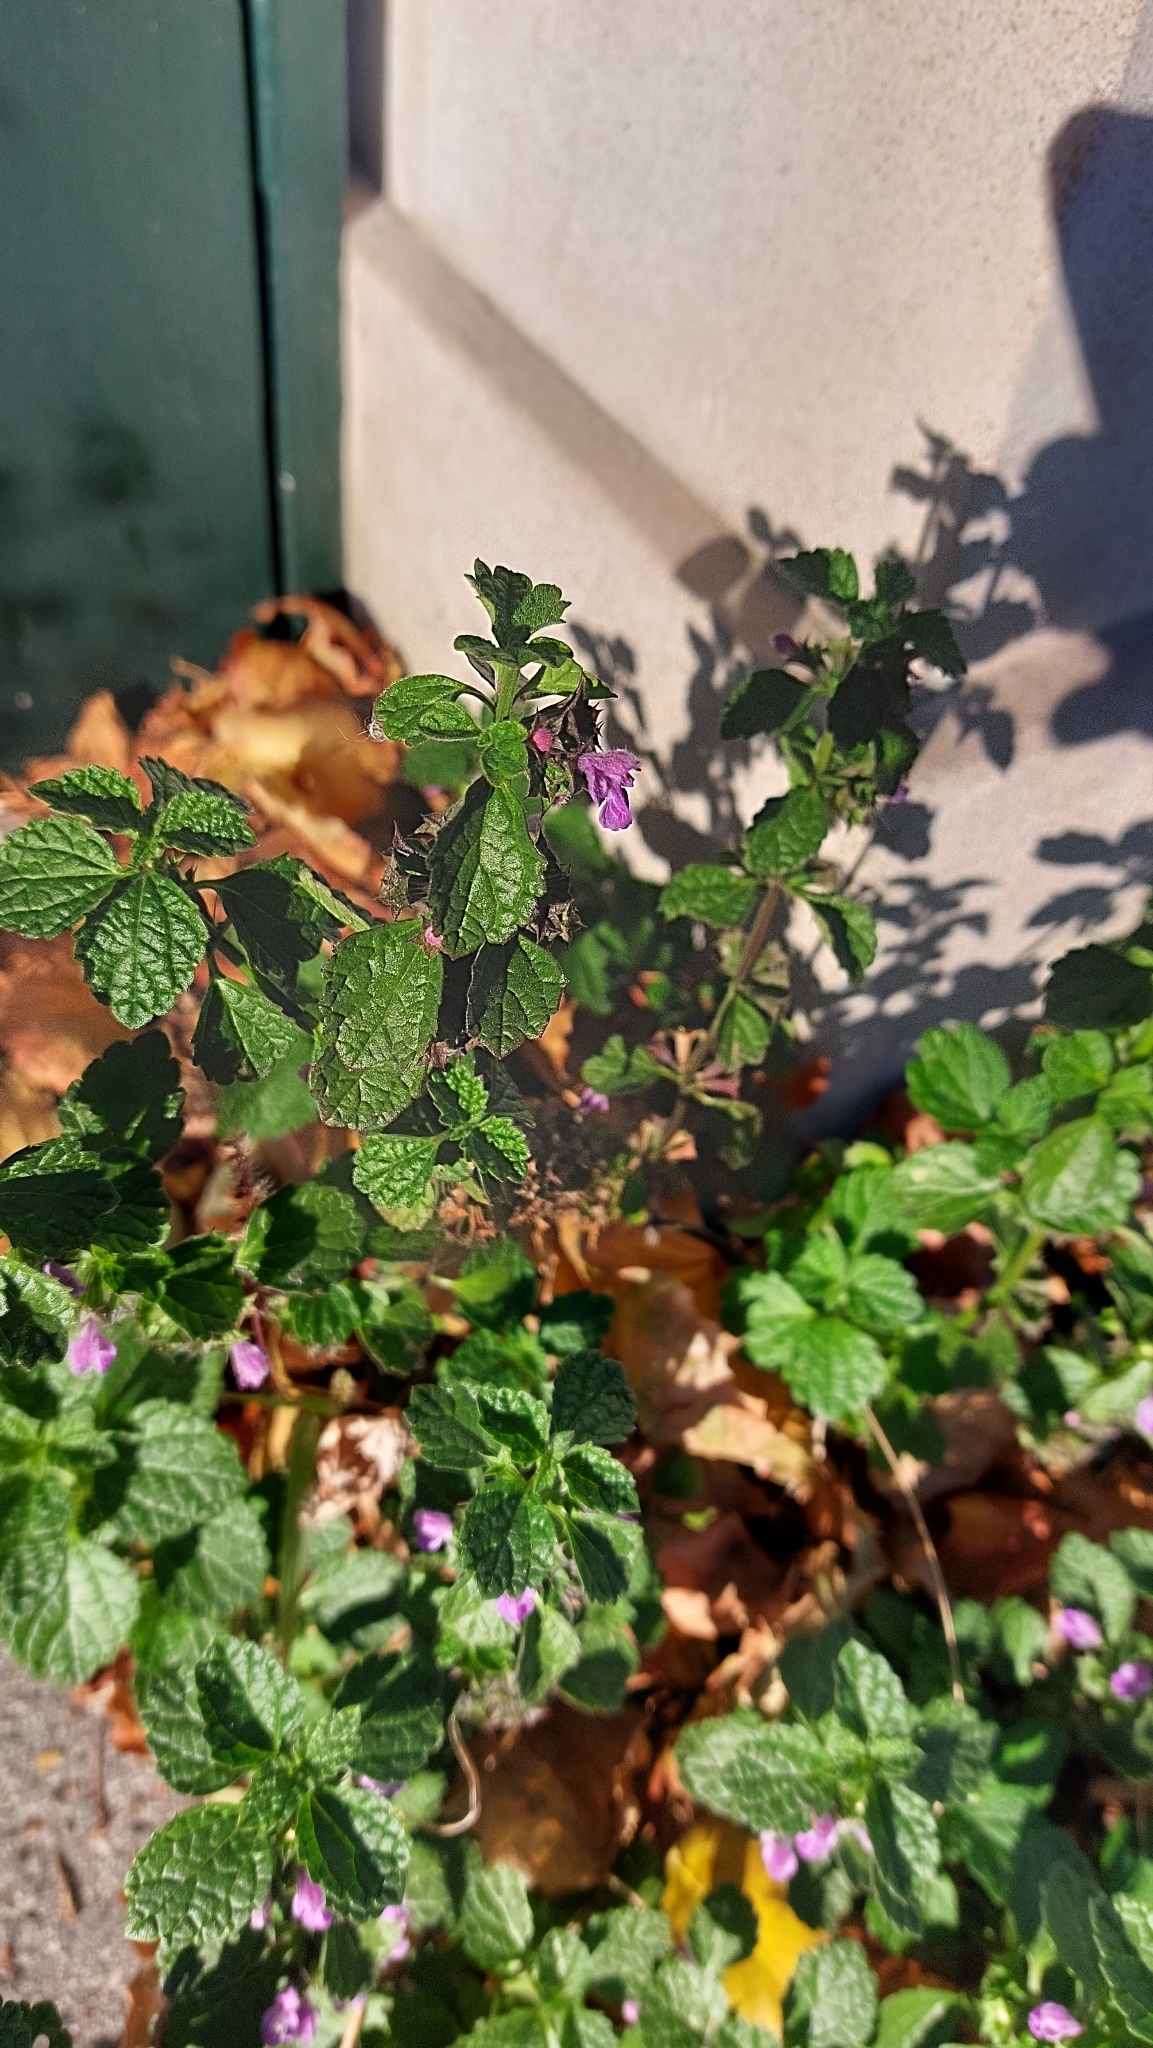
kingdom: Plantae
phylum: Tracheophyta
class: Magnoliopsida
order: Lamiales
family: Lamiaceae
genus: Ballota
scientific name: Ballota nigra
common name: Black horehound
